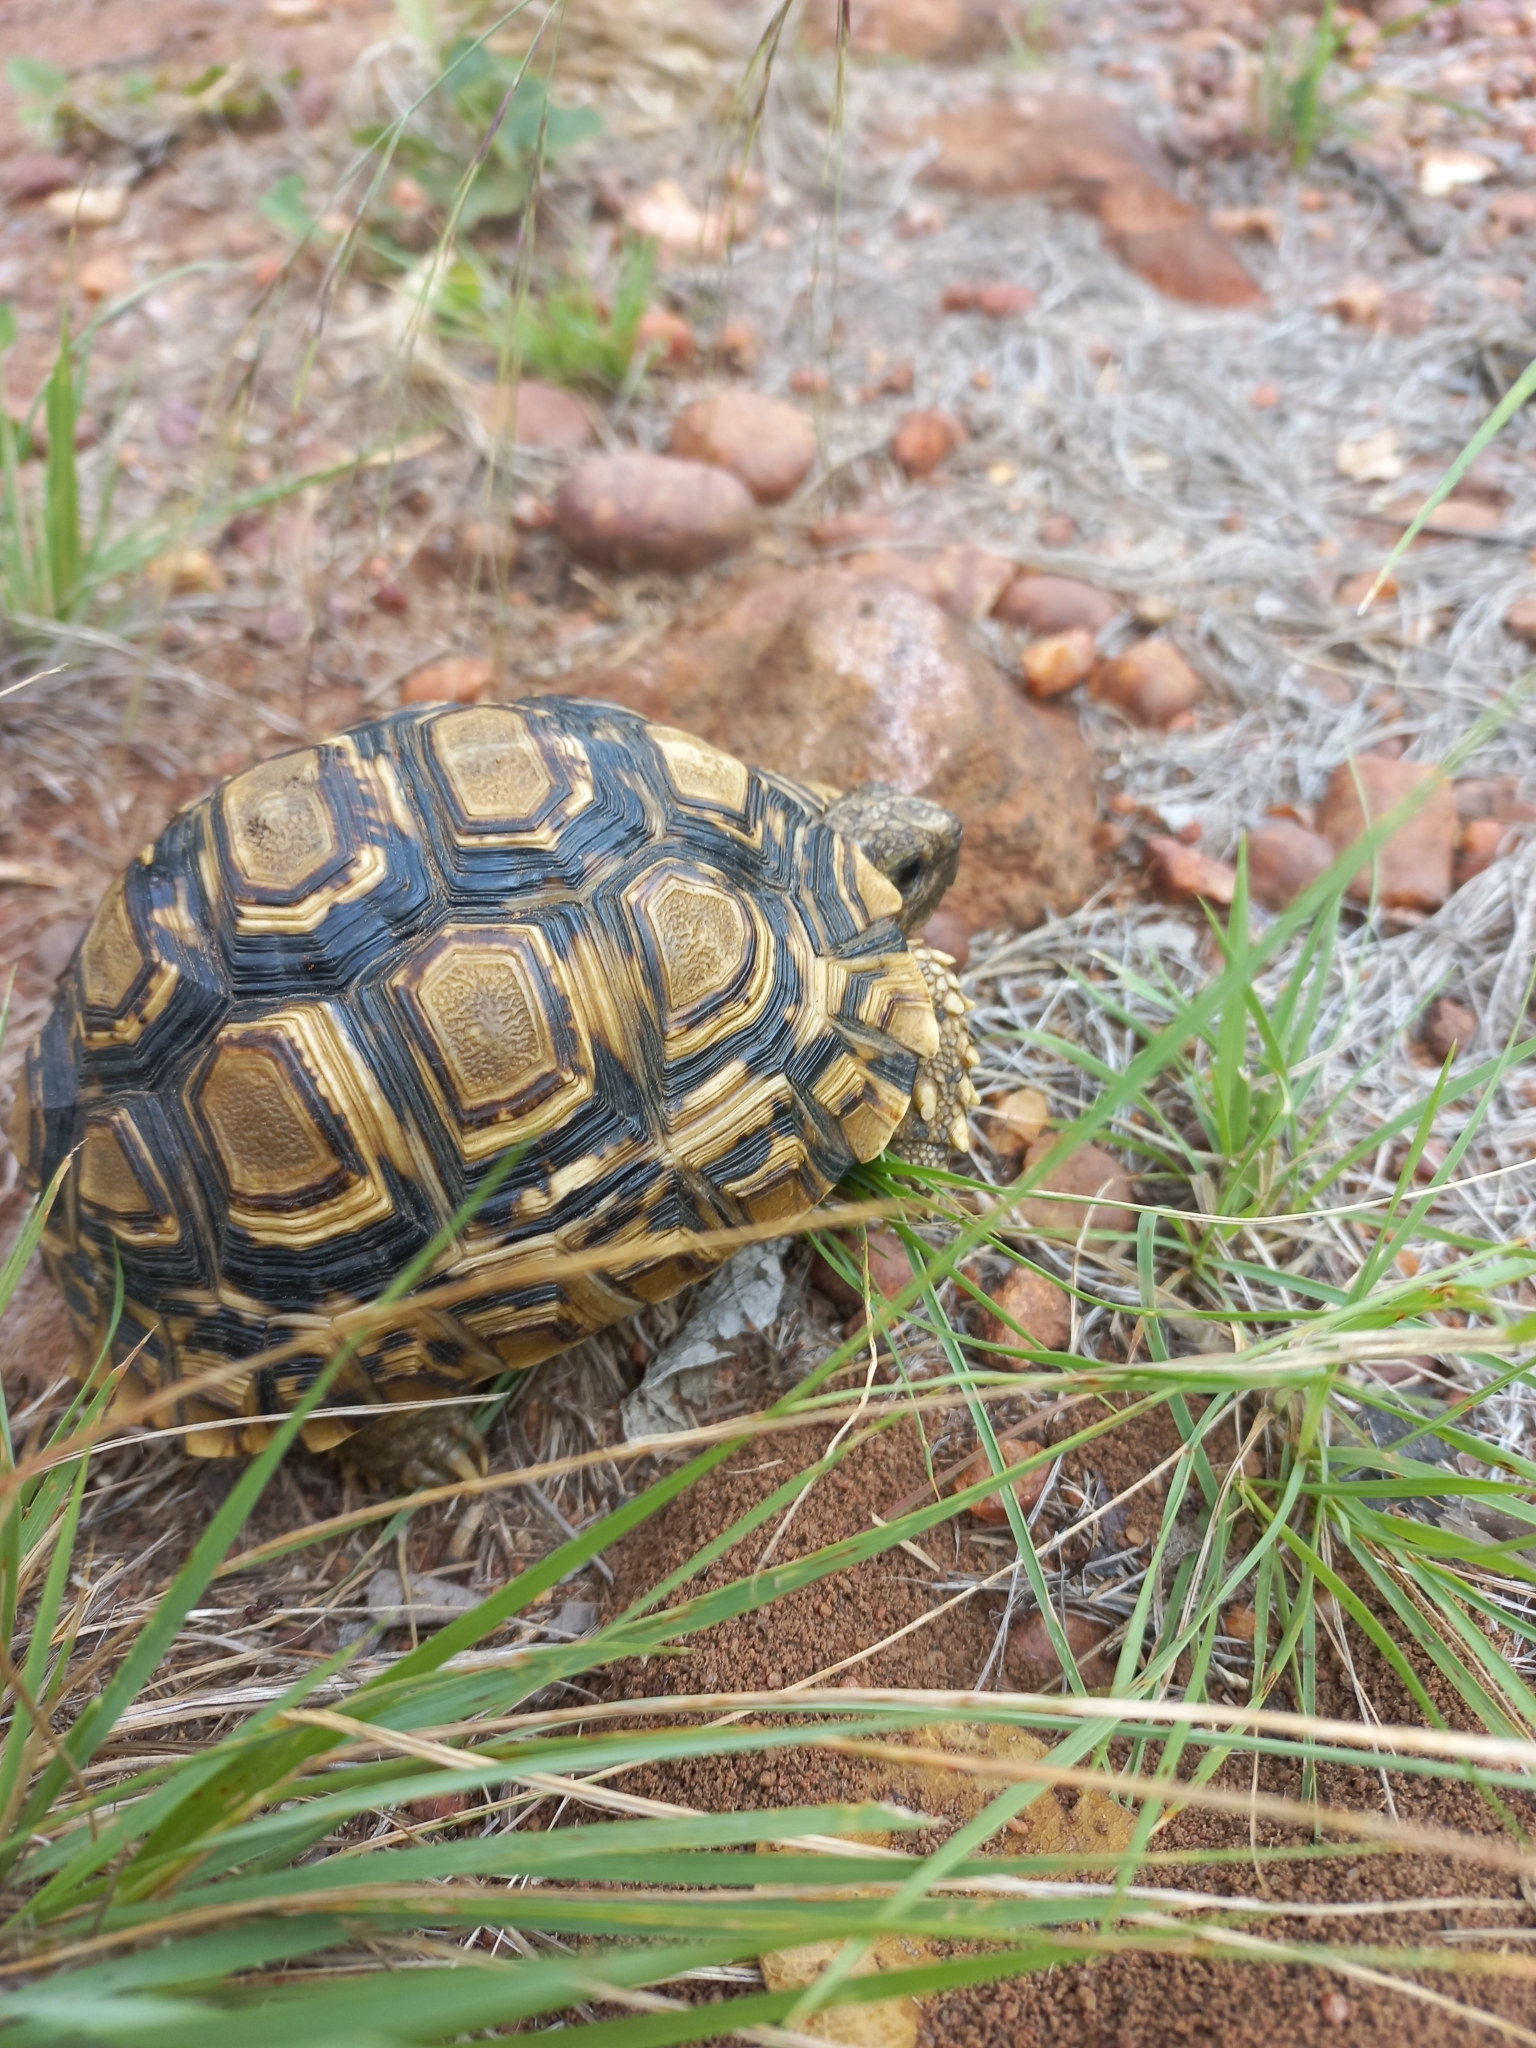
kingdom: Animalia
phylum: Chordata
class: Testudines
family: Testudinidae
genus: Stigmochelys
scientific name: Stigmochelys pardalis
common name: Leopard tortoise
